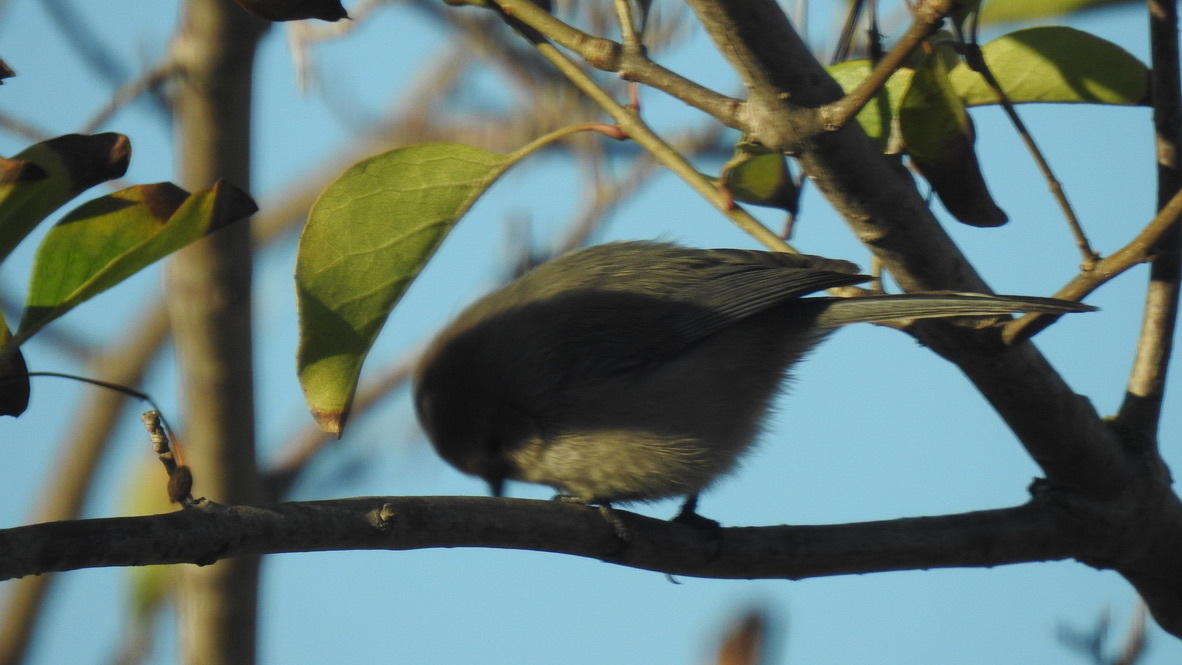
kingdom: Animalia
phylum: Chordata
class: Aves
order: Passeriformes
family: Aegithalidae
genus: Psaltriparus
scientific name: Psaltriparus minimus
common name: American bushtit
